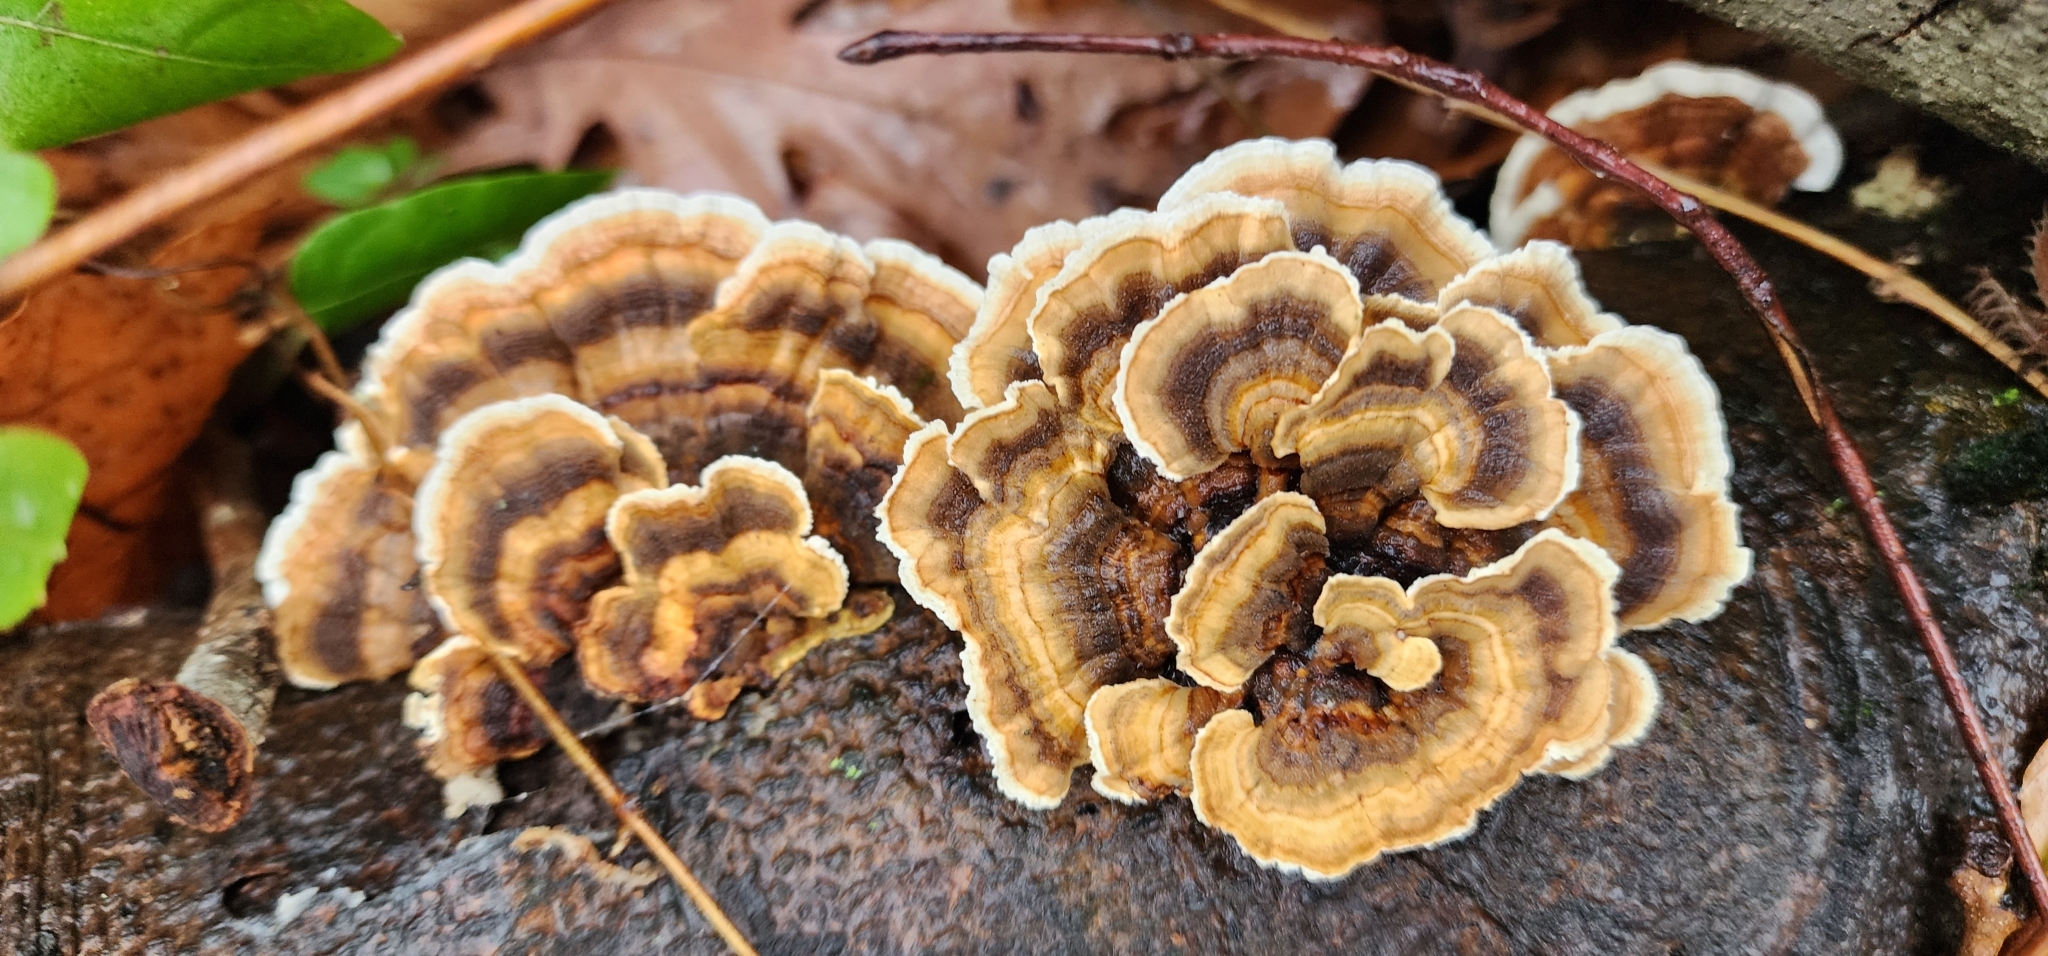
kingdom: Fungi
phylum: Basidiomycota
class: Agaricomycetes
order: Polyporales
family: Polyporaceae
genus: Trametes
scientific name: Trametes versicolor
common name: Turkeytail
